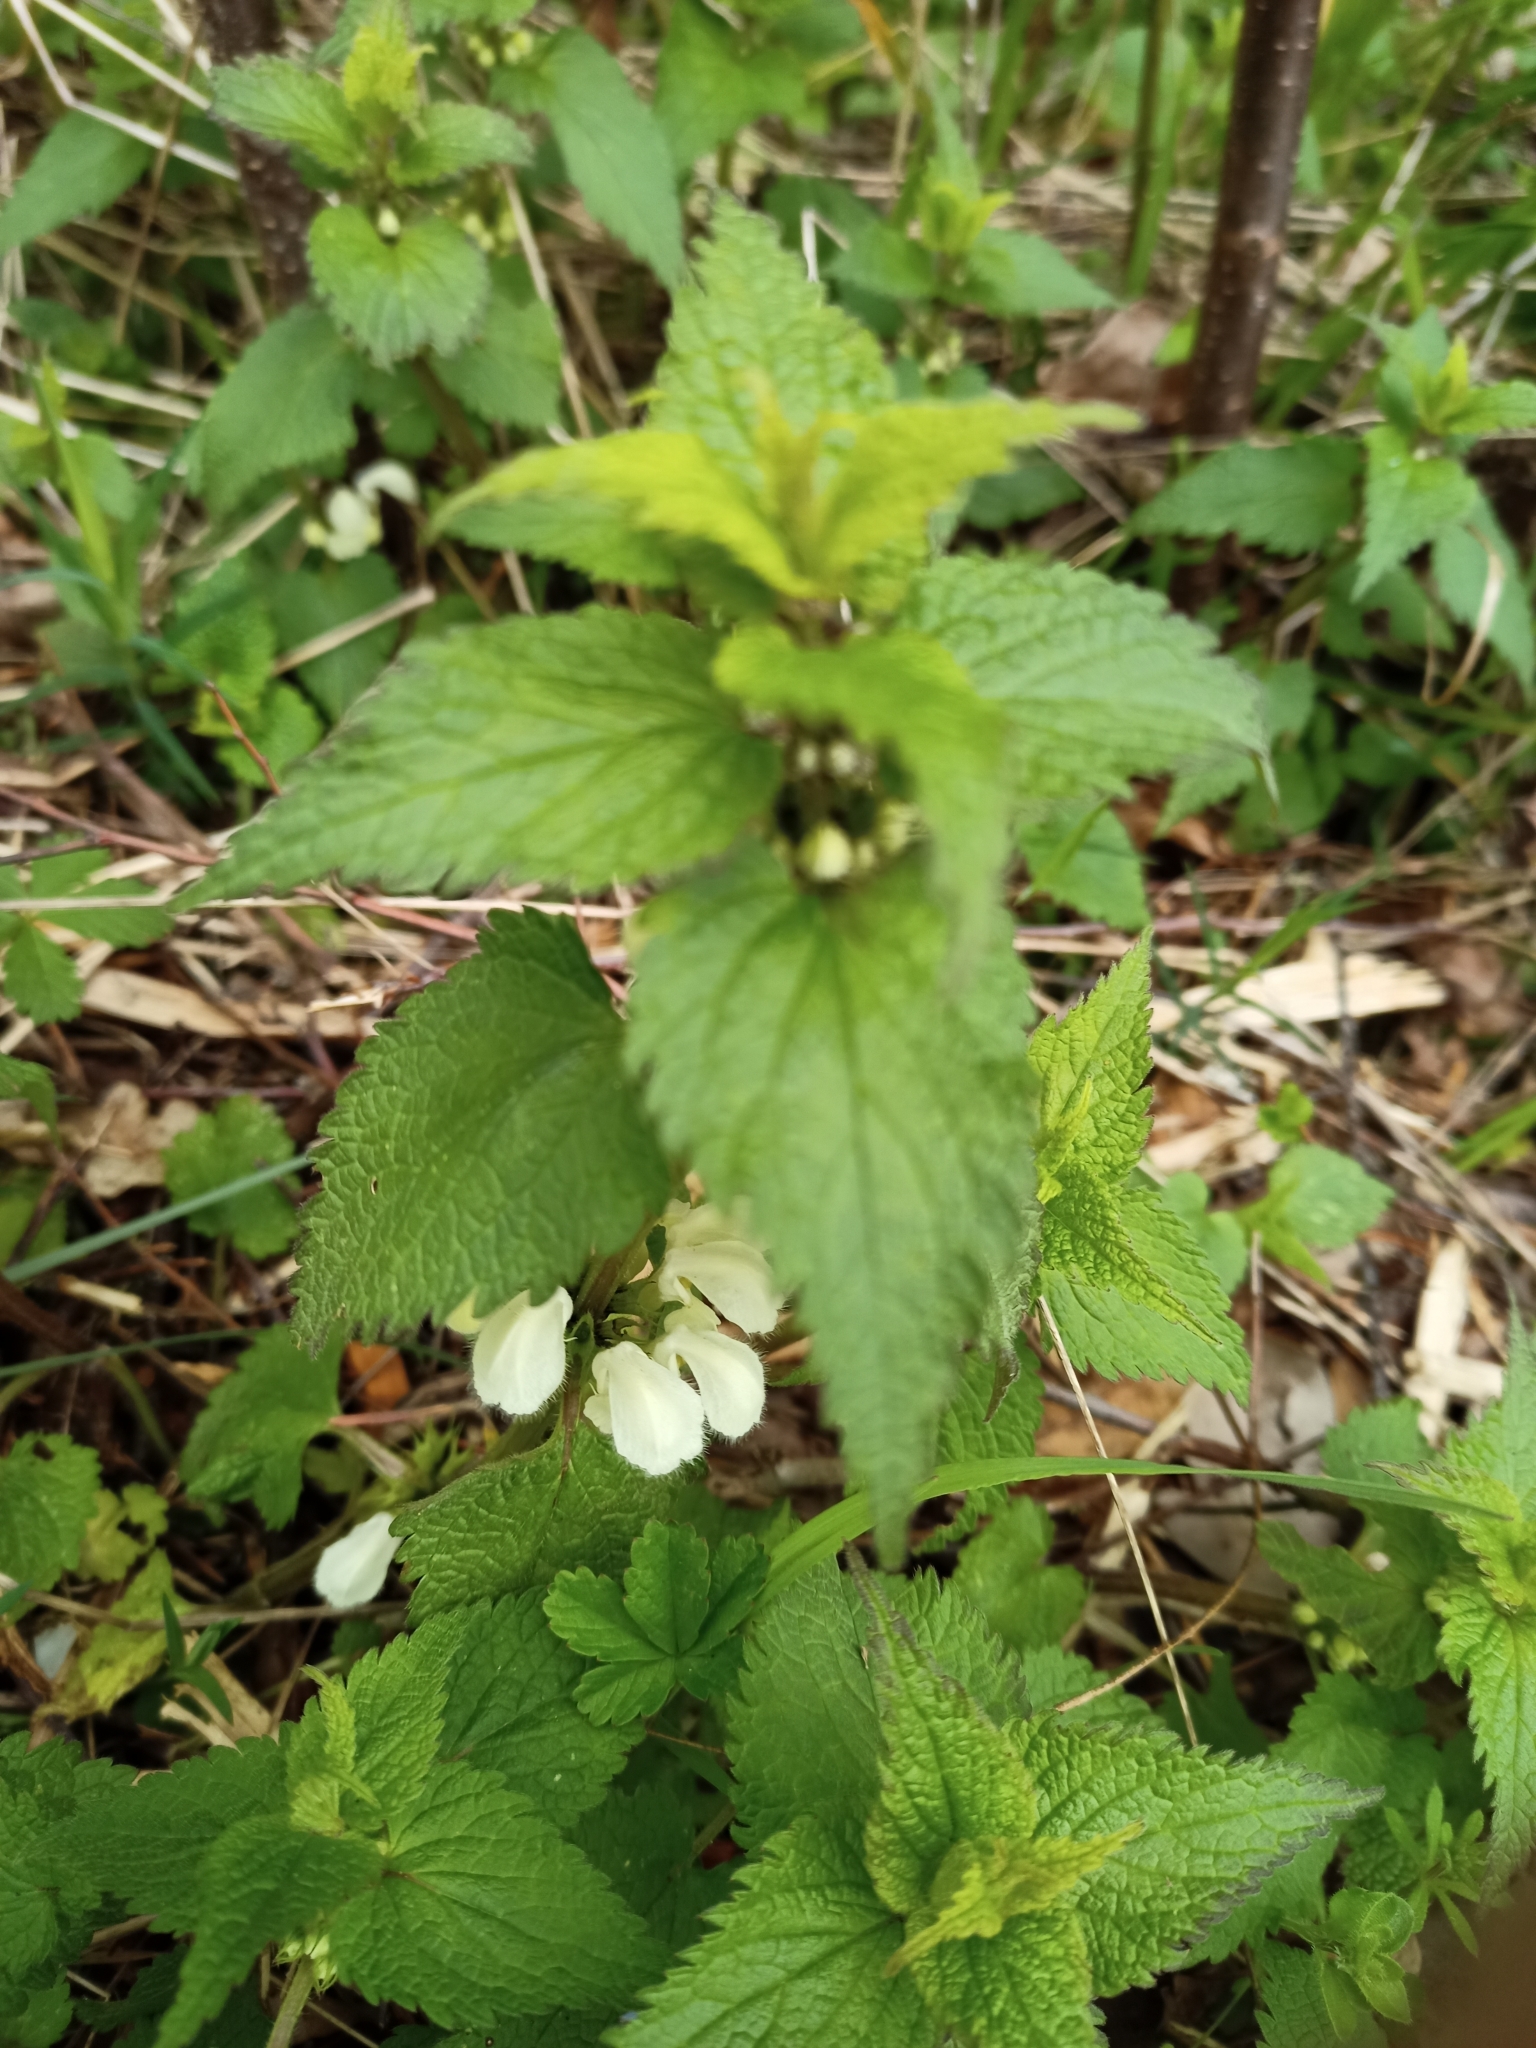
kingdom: Plantae
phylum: Tracheophyta
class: Magnoliopsida
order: Lamiales
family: Lamiaceae
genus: Lamium
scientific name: Lamium album
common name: White dead-nettle
